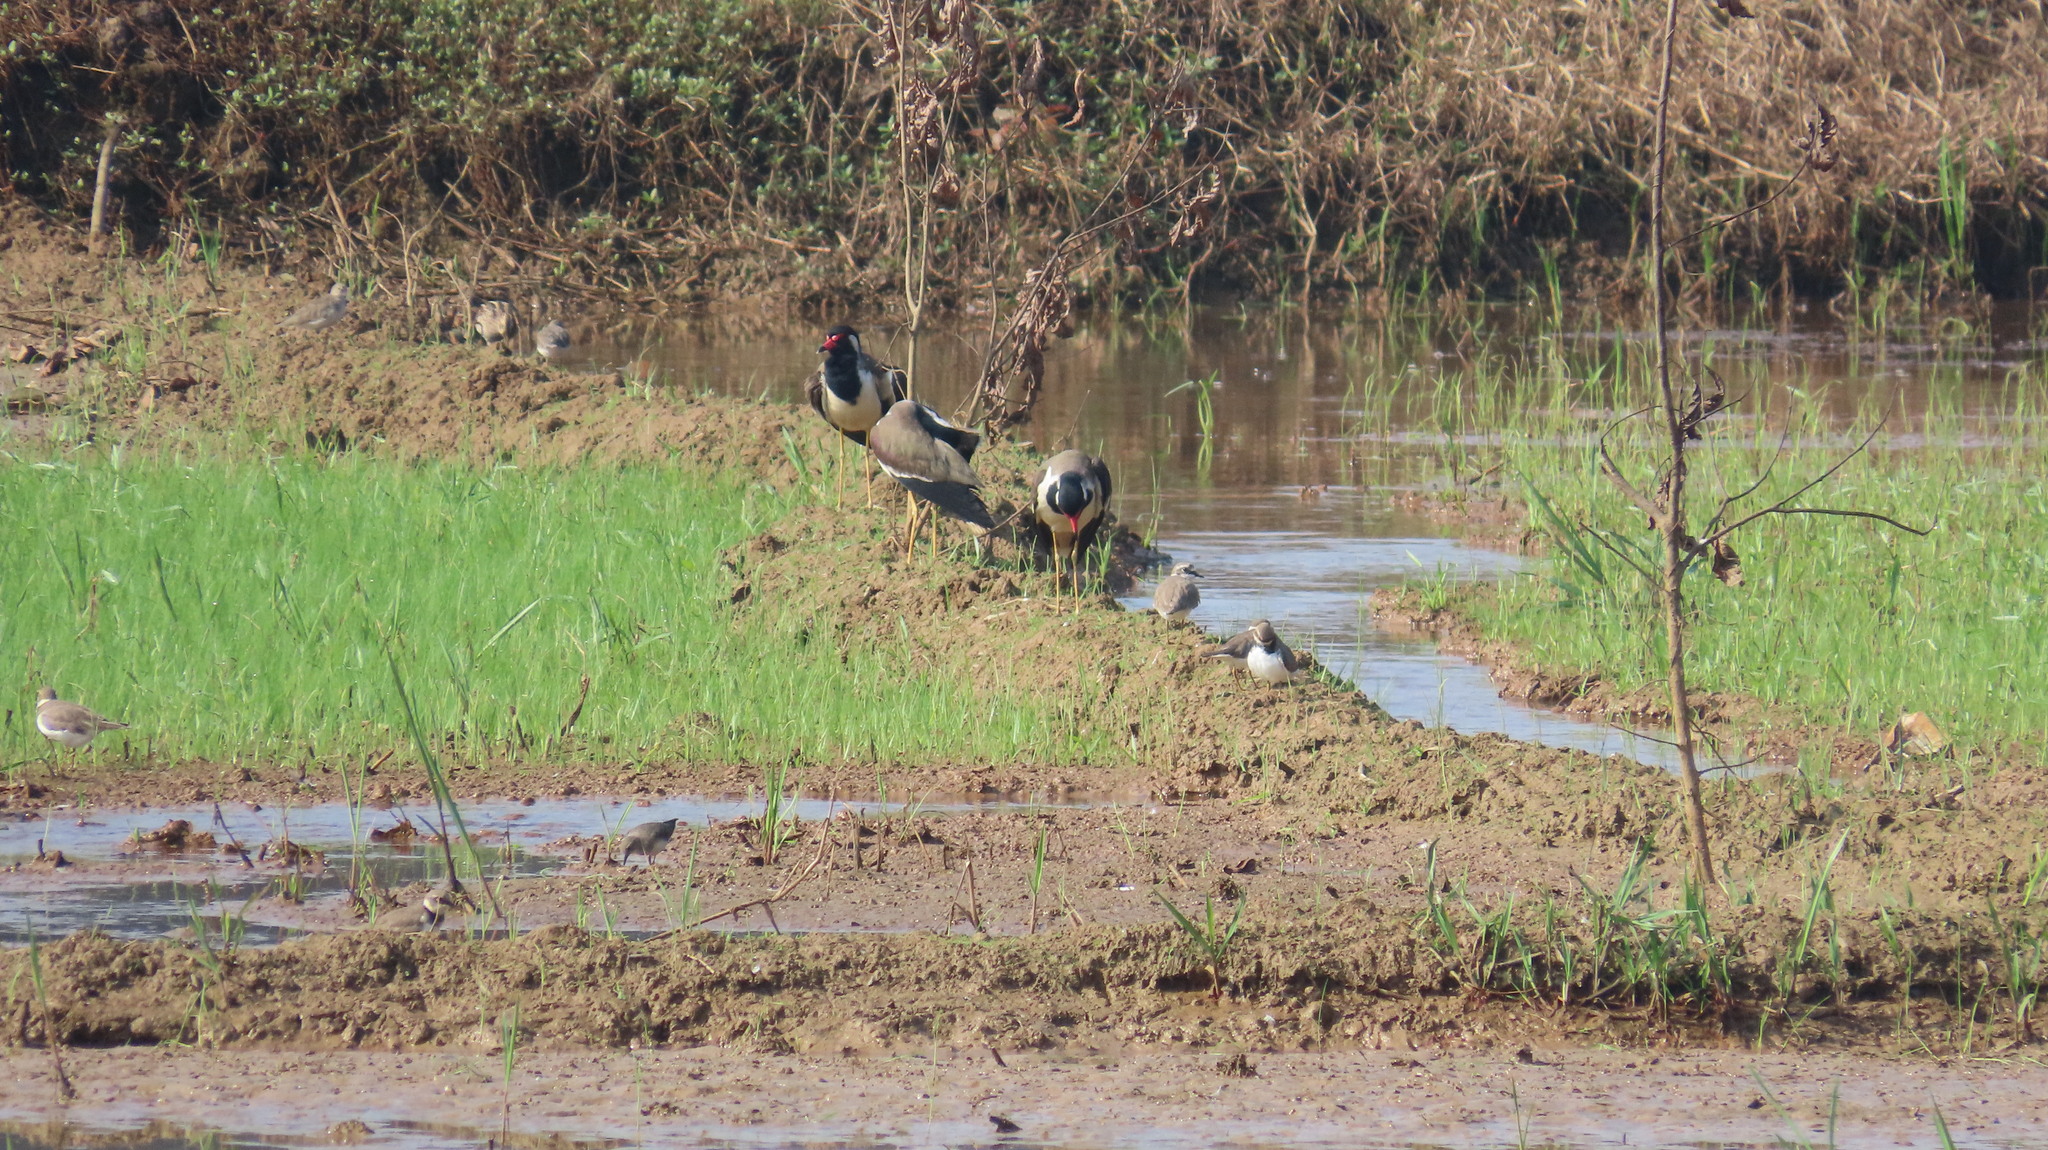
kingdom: Animalia
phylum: Chordata
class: Aves
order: Charadriiformes
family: Charadriidae
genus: Vanellus
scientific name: Vanellus indicus
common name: Red-wattled lapwing
